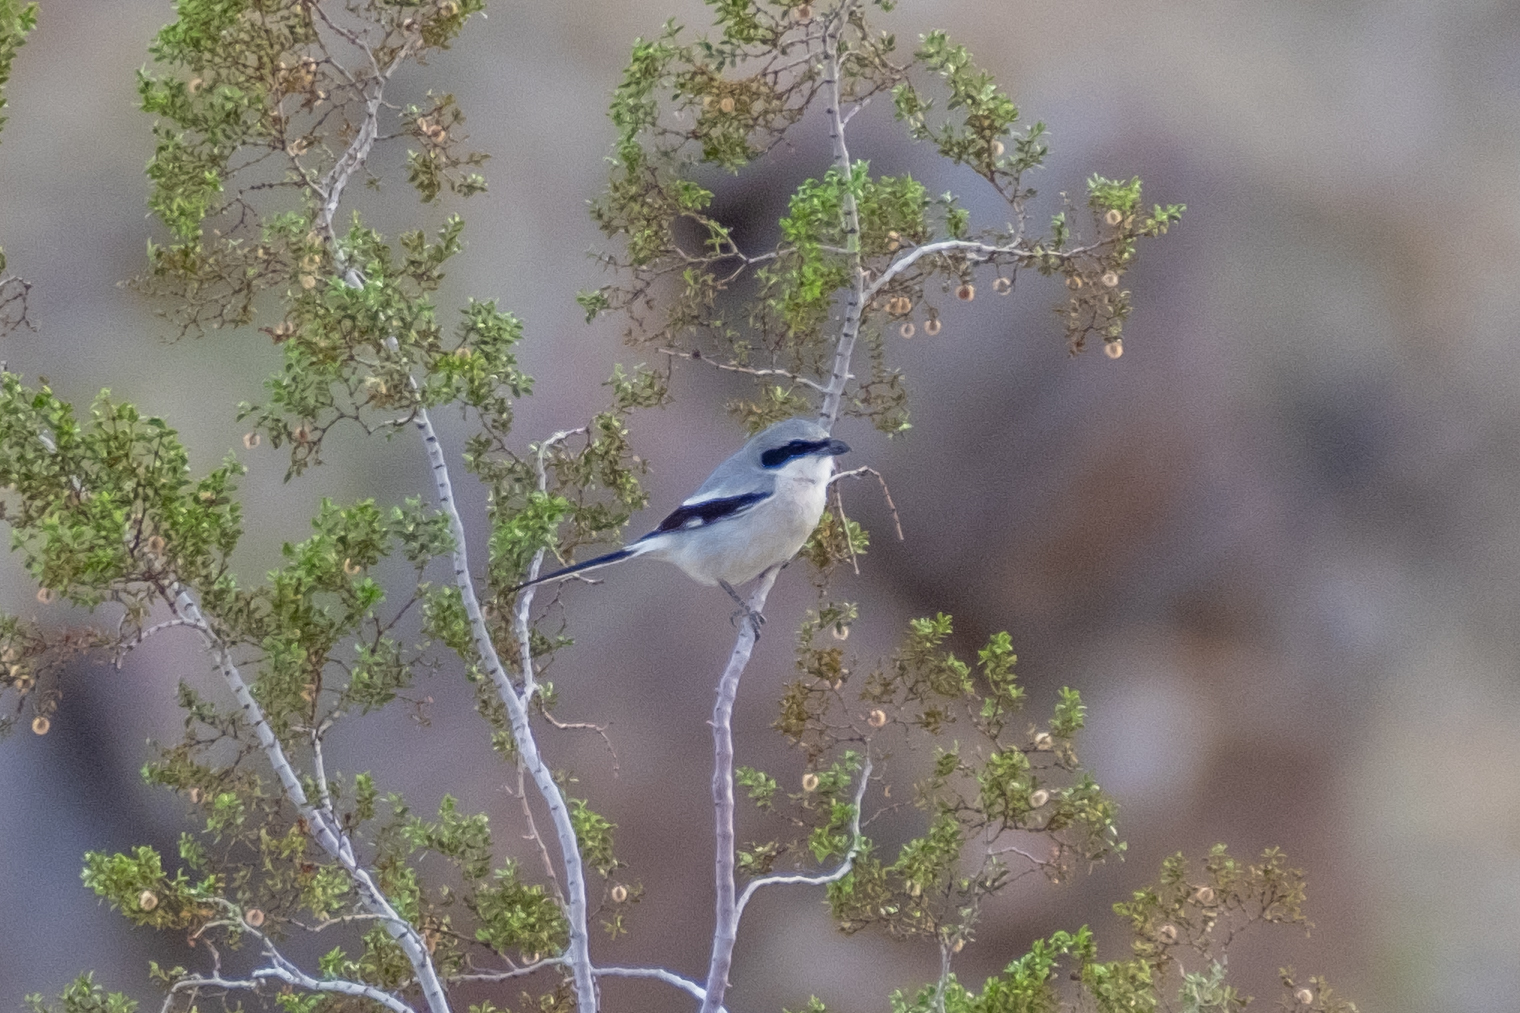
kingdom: Animalia
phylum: Chordata
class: Aves
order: Passeriformes
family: Laniidae
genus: Lanius
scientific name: Lanius ludovicianus
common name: Loggerhead shrike
